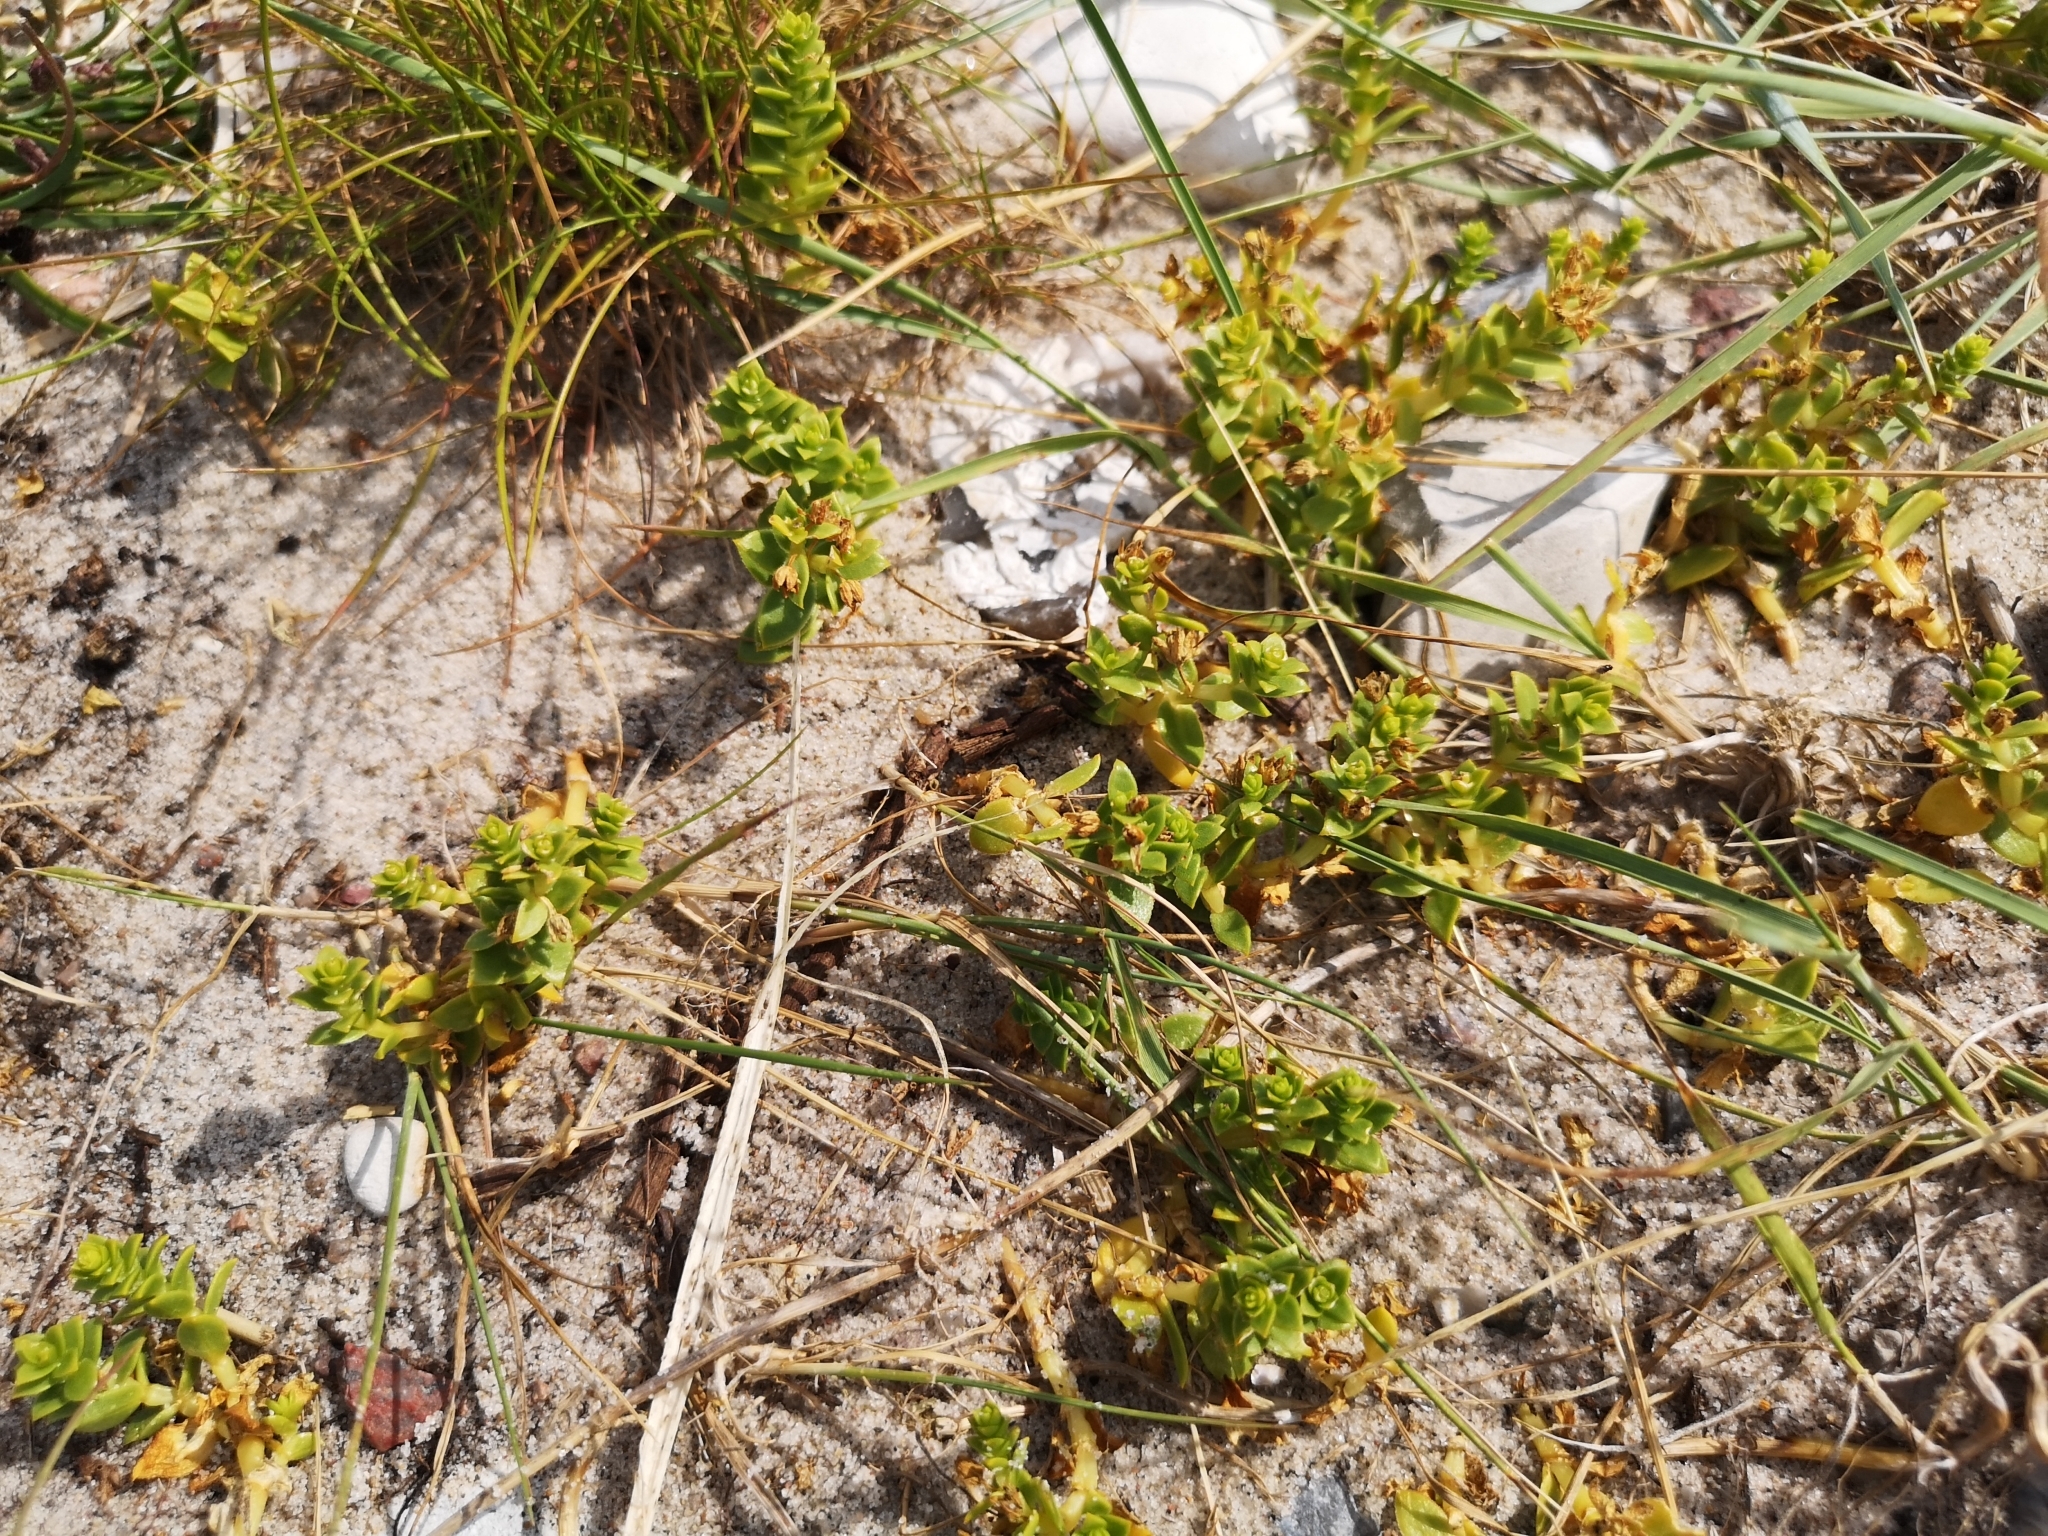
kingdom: Plantae
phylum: Tracheophyta
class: Magnoliopsida
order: Caryophyllales
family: Caryophyllaceae
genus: Honckenya
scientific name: Honckenya peploides
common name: Sea sandwort
